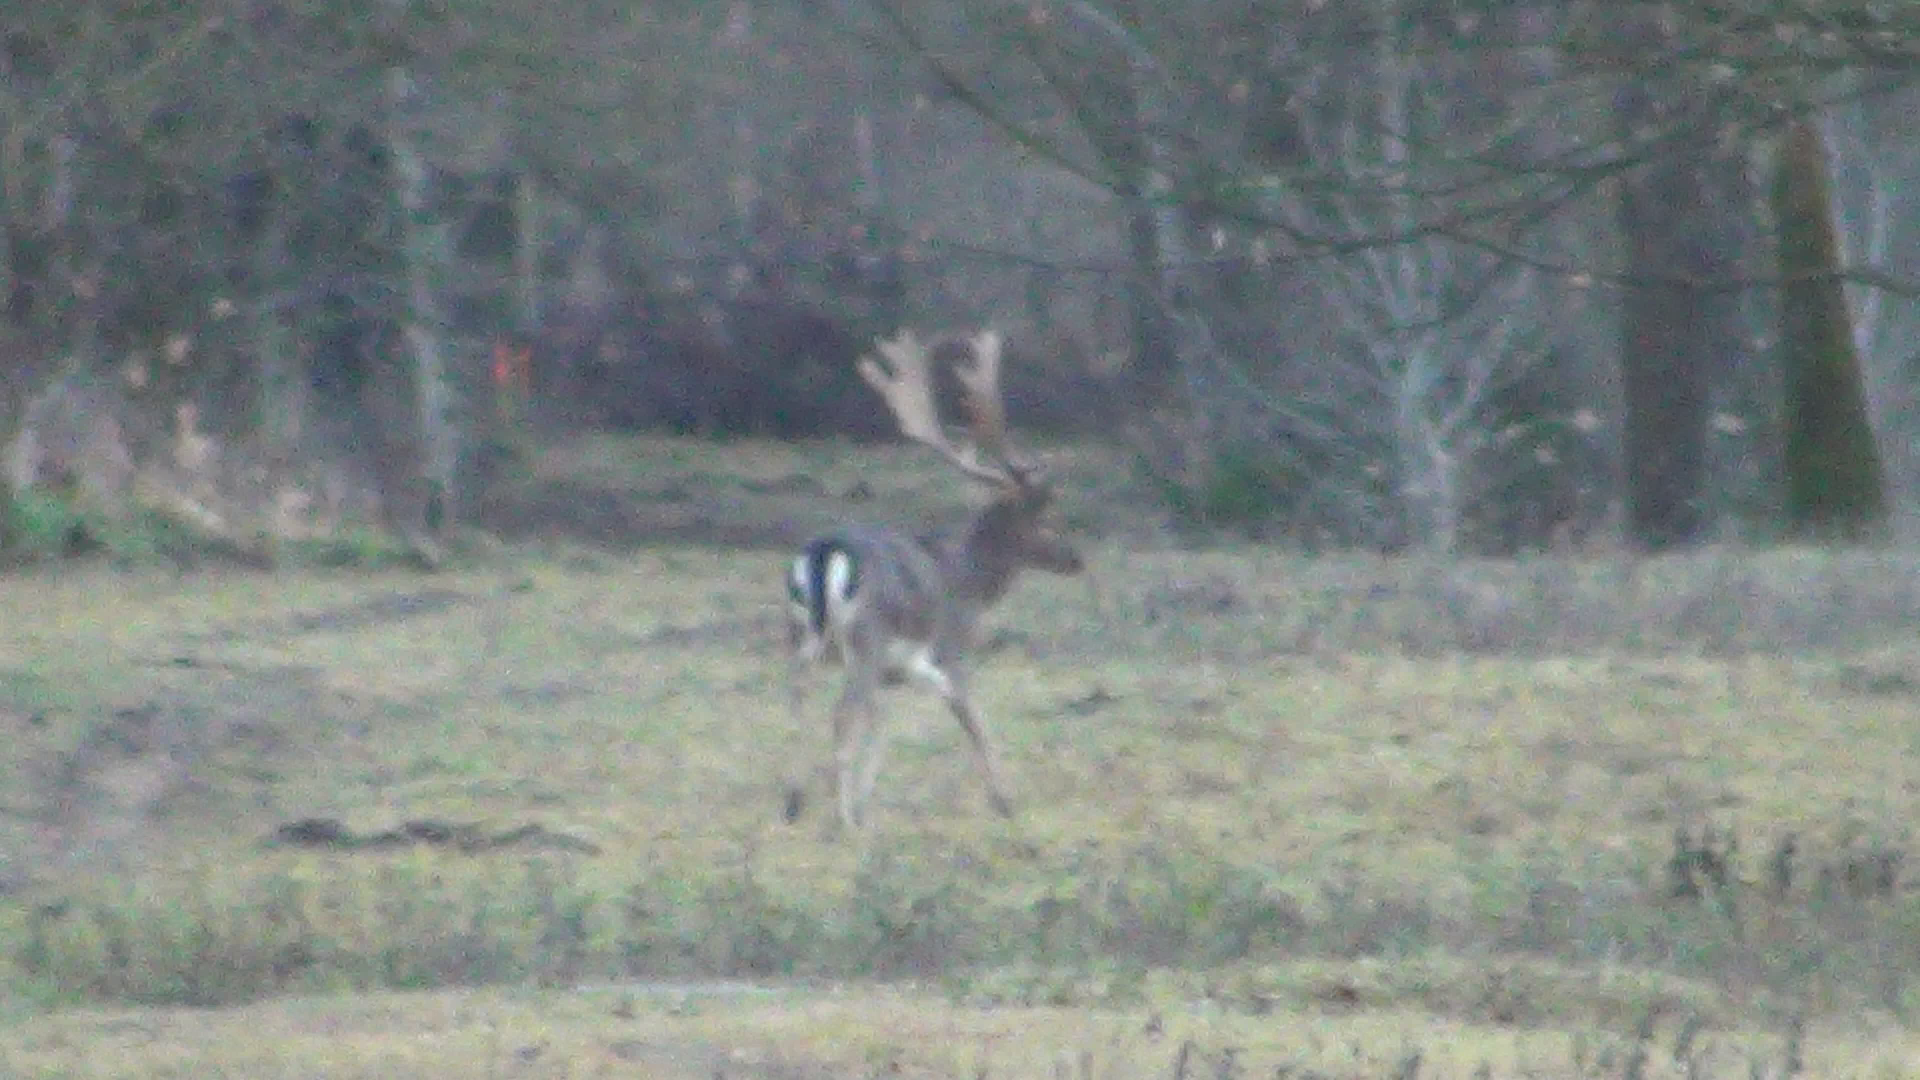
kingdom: Animalia
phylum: Chordata
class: Mammalia
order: Artiodactyla
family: Cervidae
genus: Dama
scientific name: Dama dama
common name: Fallow deer
